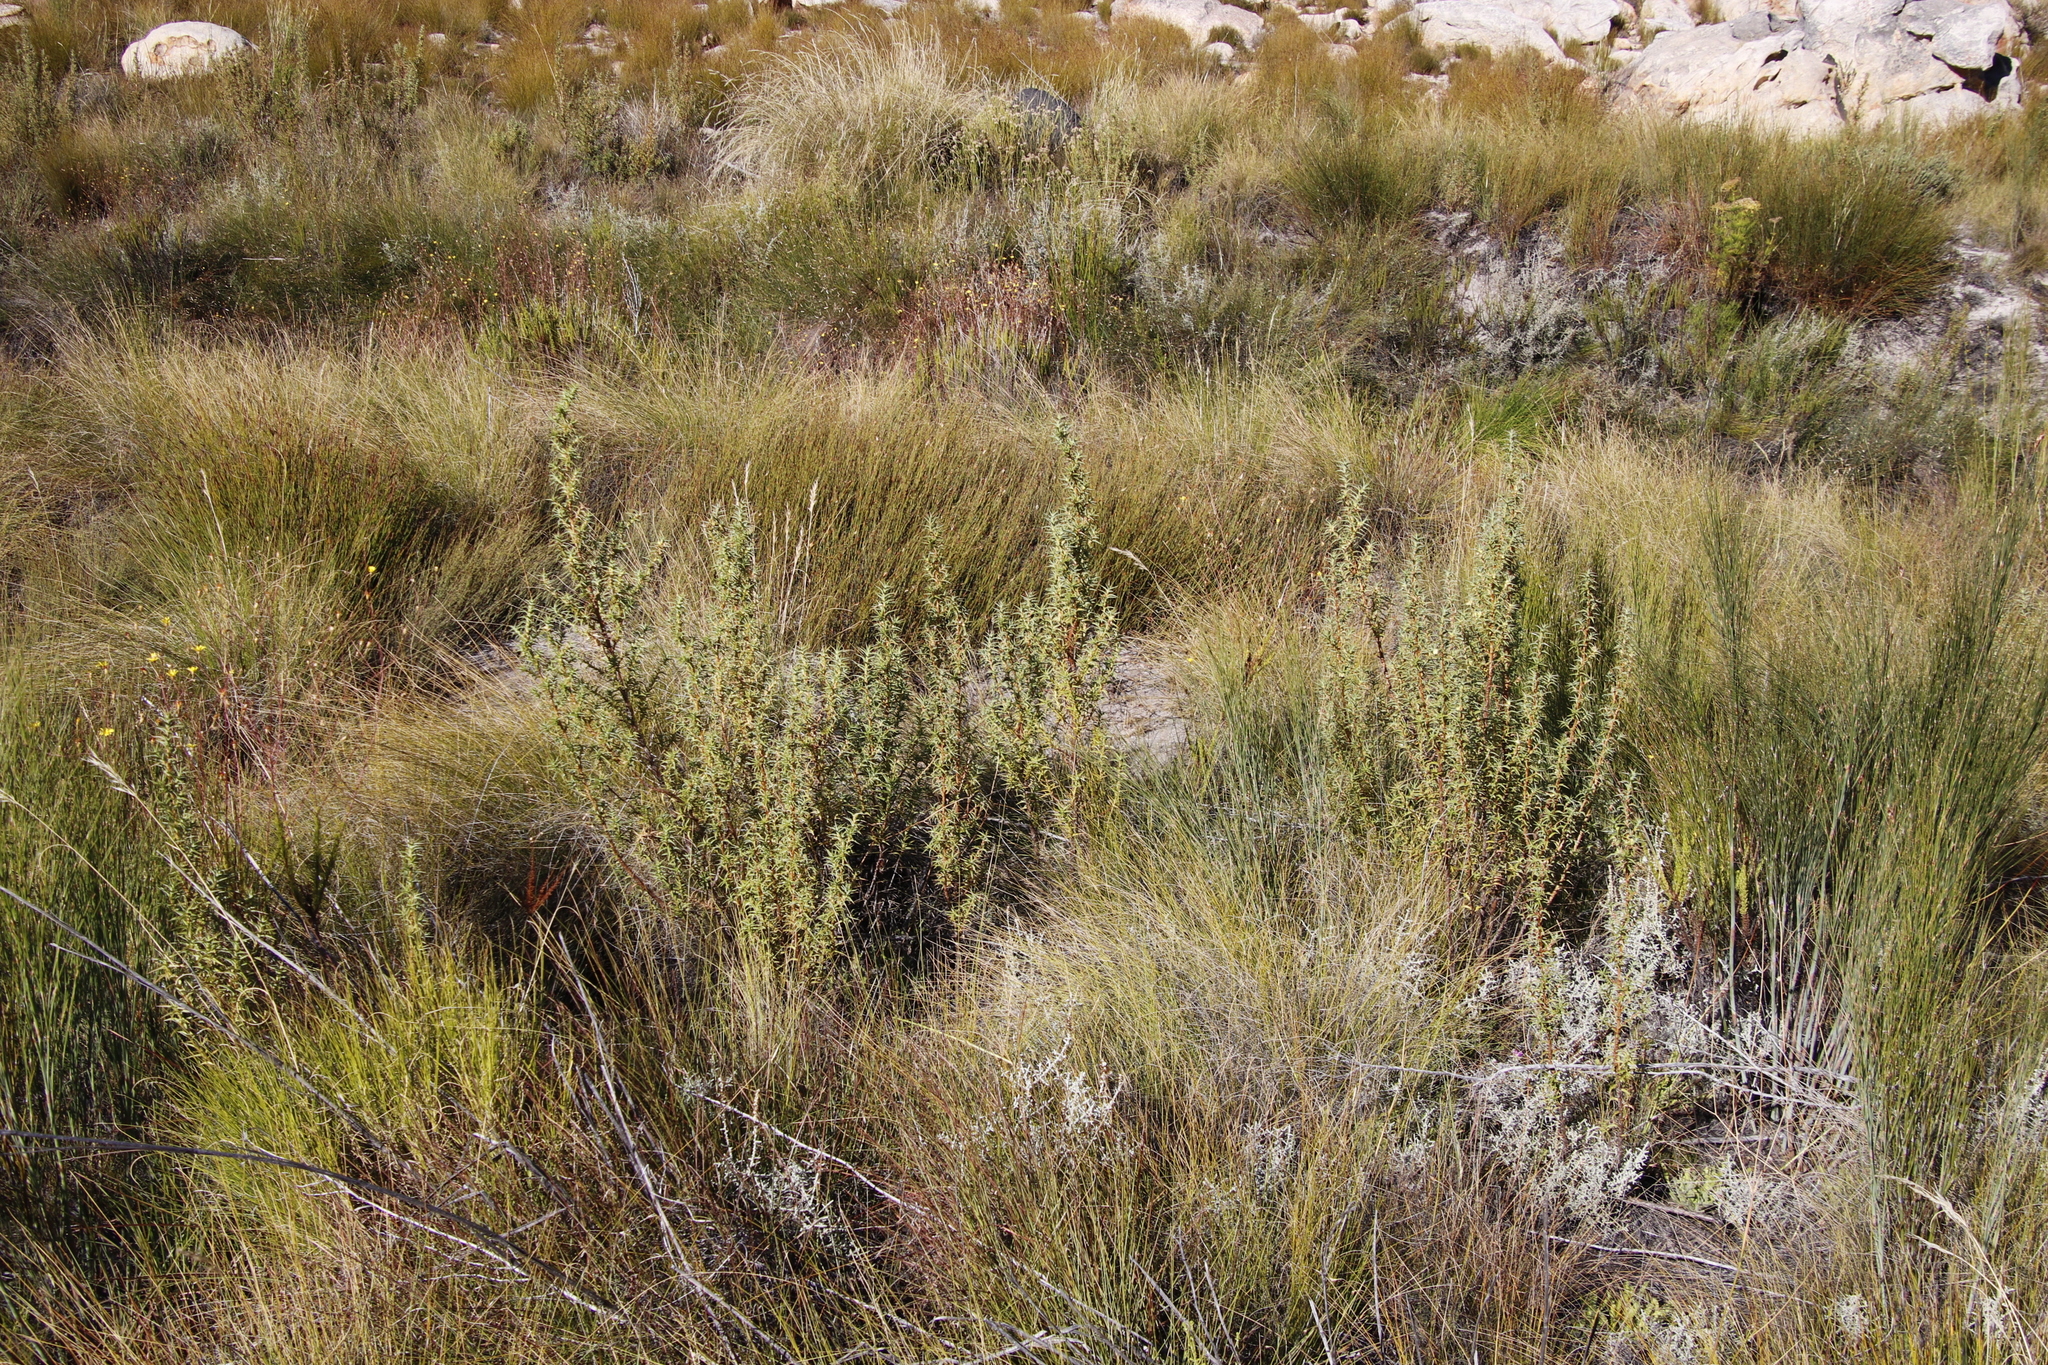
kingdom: Plantae
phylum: Tracheophyta
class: Magnoliopsida
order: Rosales
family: Rosaceae
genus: Cliffortia
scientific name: Cliffortia acanthophylla
